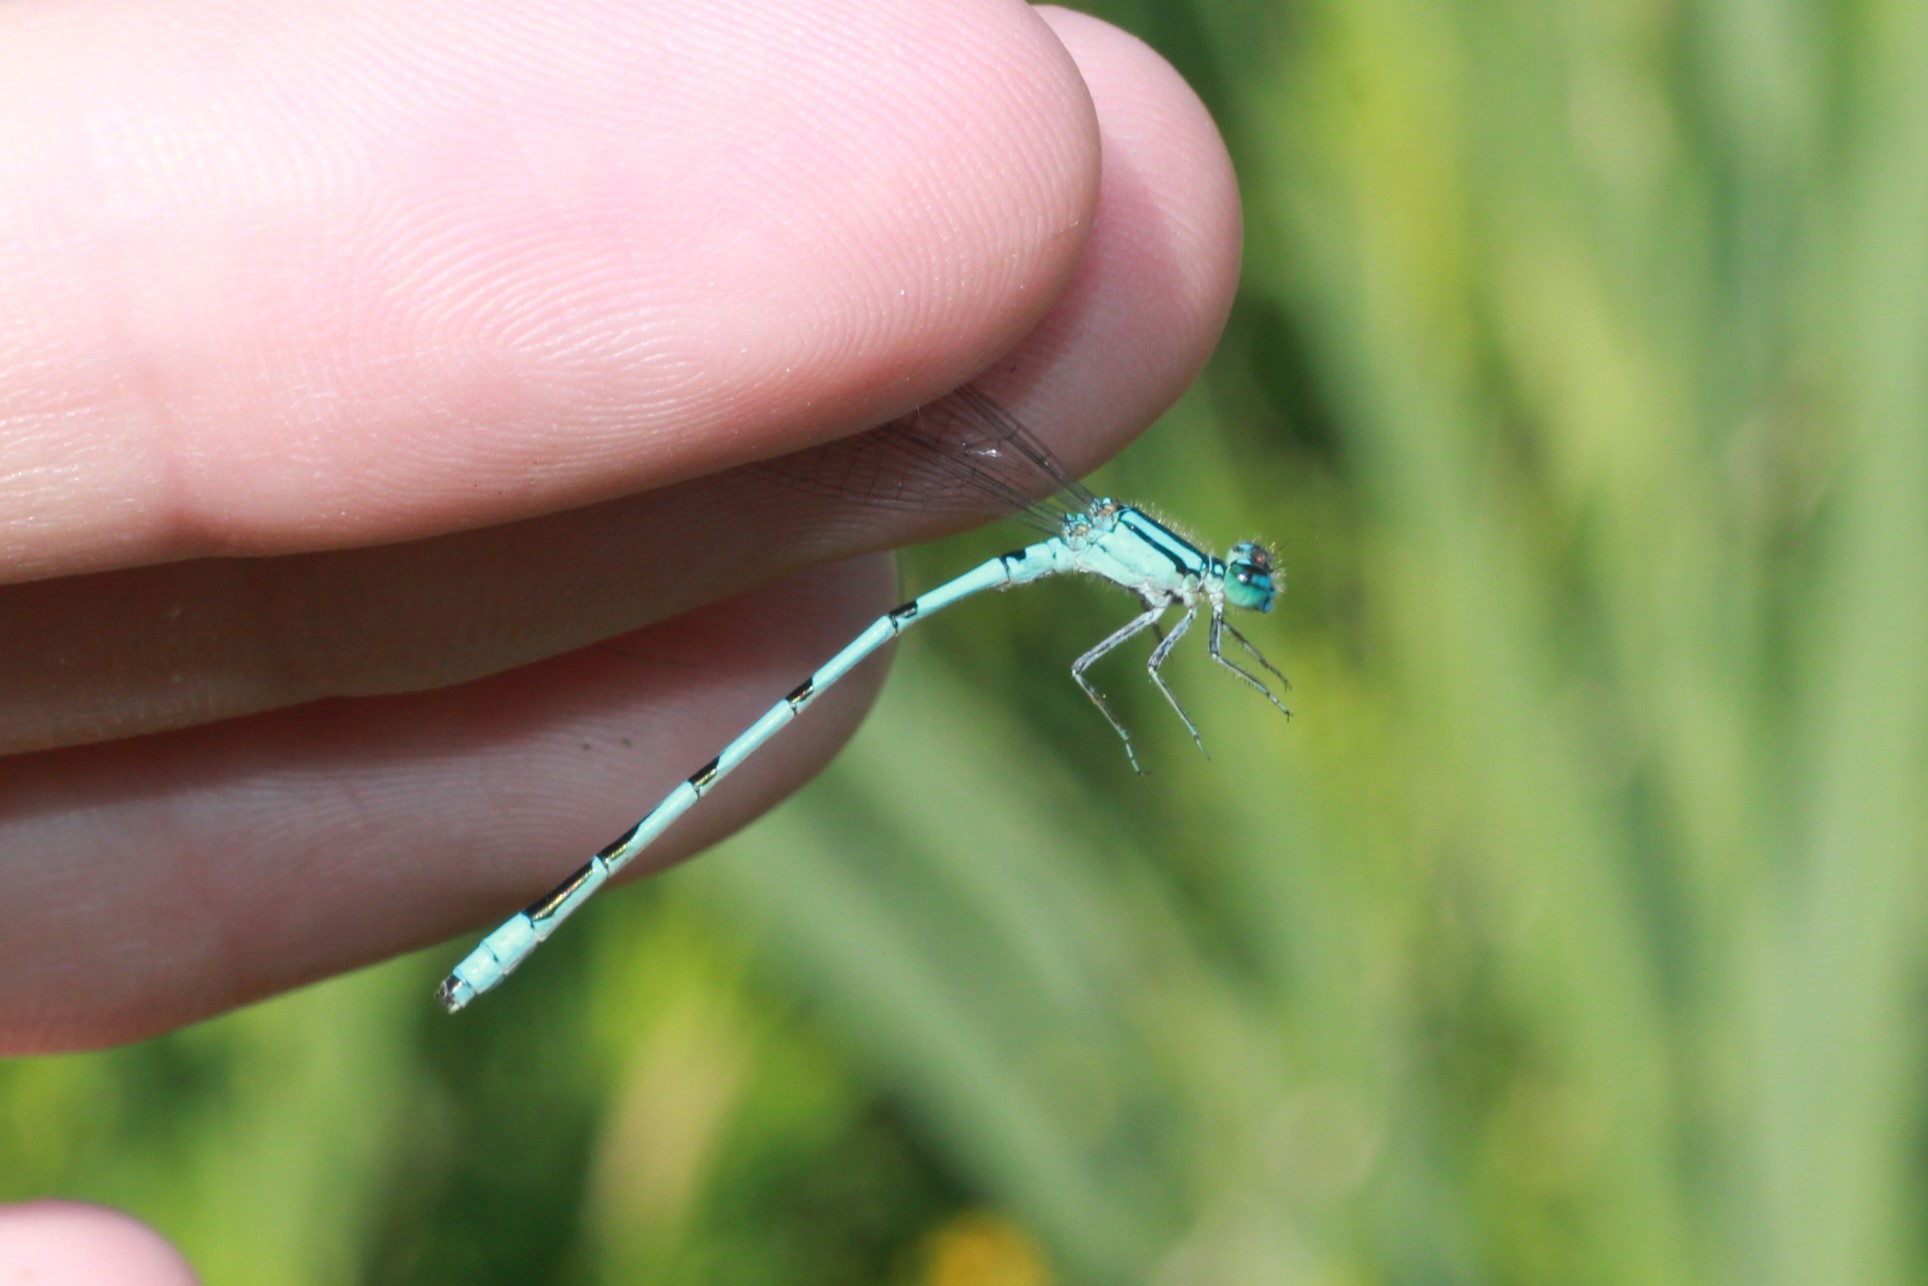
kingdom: Animalia
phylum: Arthropoda
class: Insecta
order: Odonata
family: Coenagrionidae
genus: Enallagma
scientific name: Enallagma ebrium
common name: Marsh bluet
